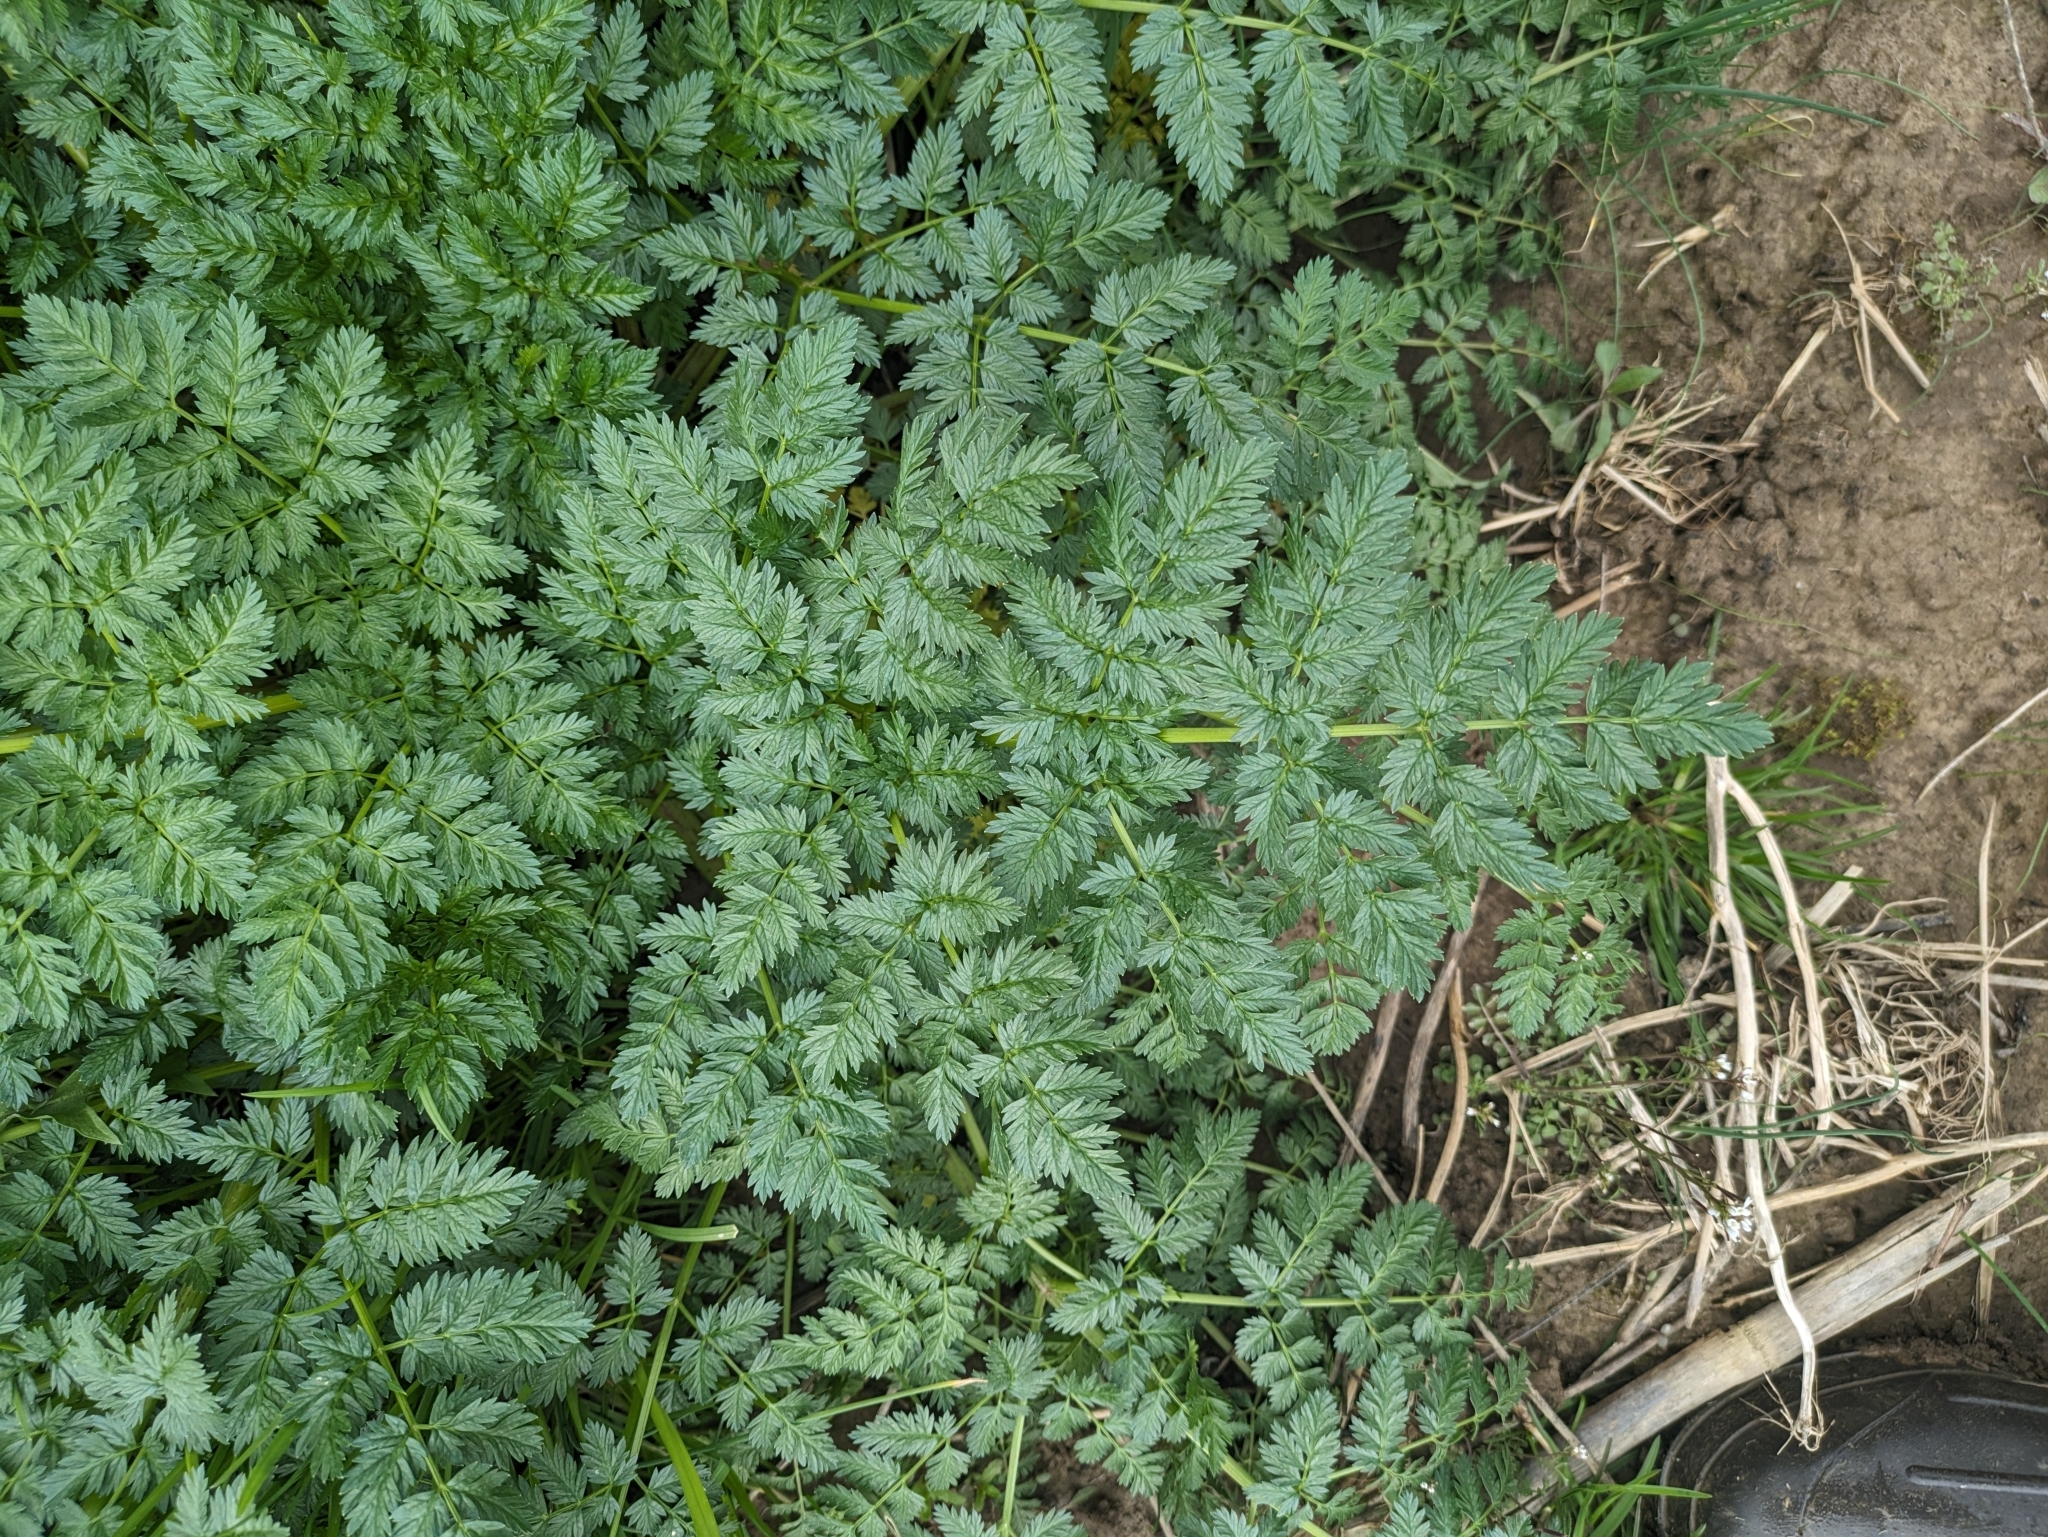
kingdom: Plantae
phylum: Tracheophyta
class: Magnoliopsida
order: Apiales
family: Apiaceae
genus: Conium
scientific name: Conium maculatum
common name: Hemlock
